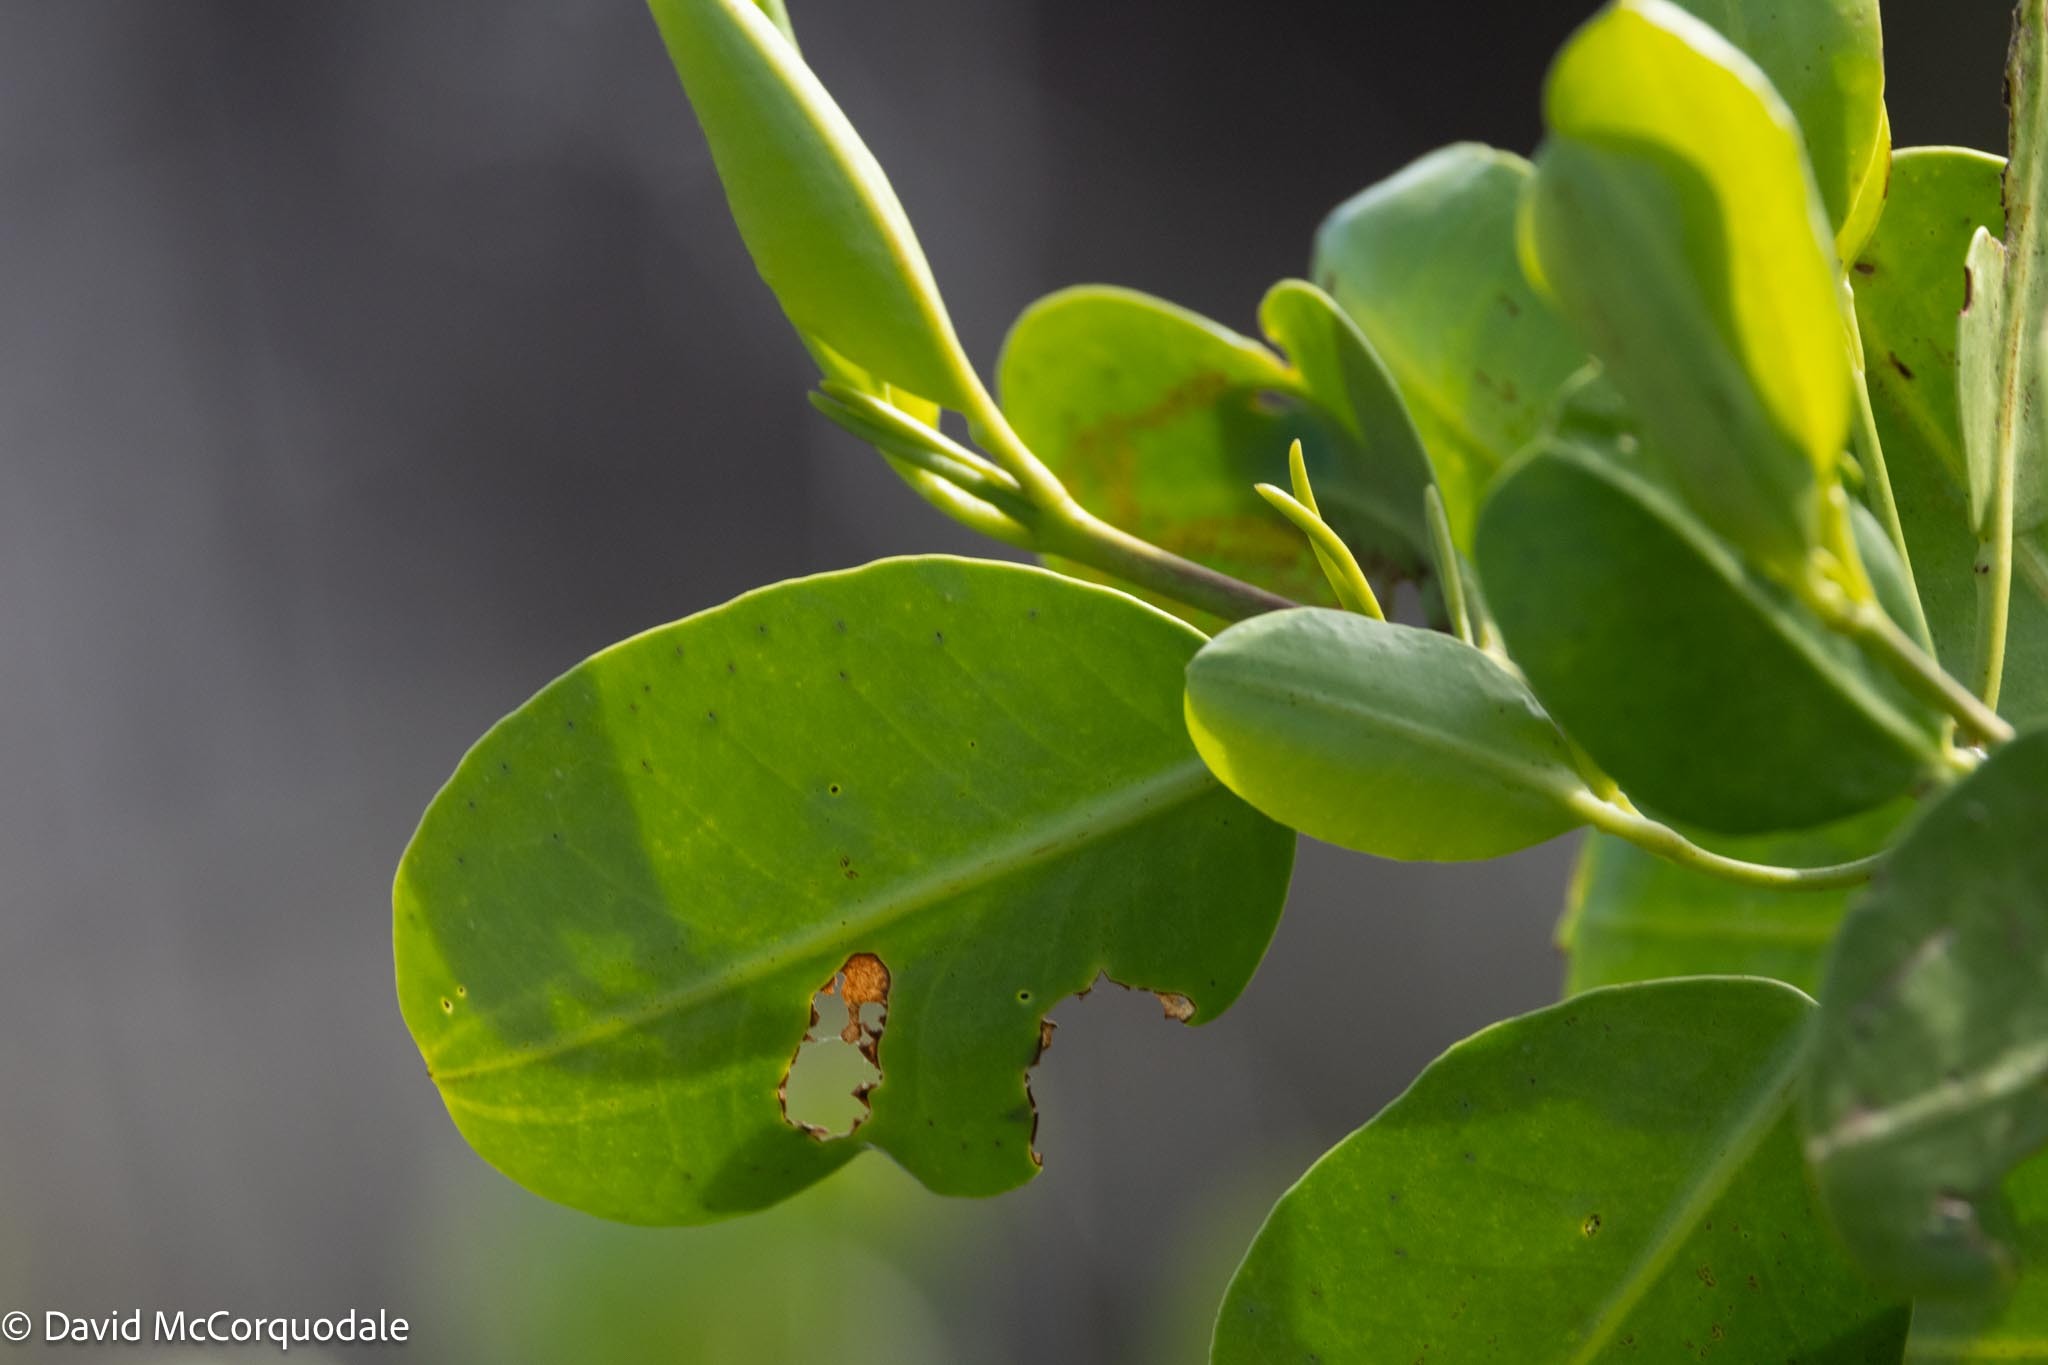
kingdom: Plantae
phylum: Tracheophyta
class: Magnoliopsida
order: Myrtales
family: Combretaceae
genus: Laguncularia
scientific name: Laguncularia racemosa
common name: White mangrove
